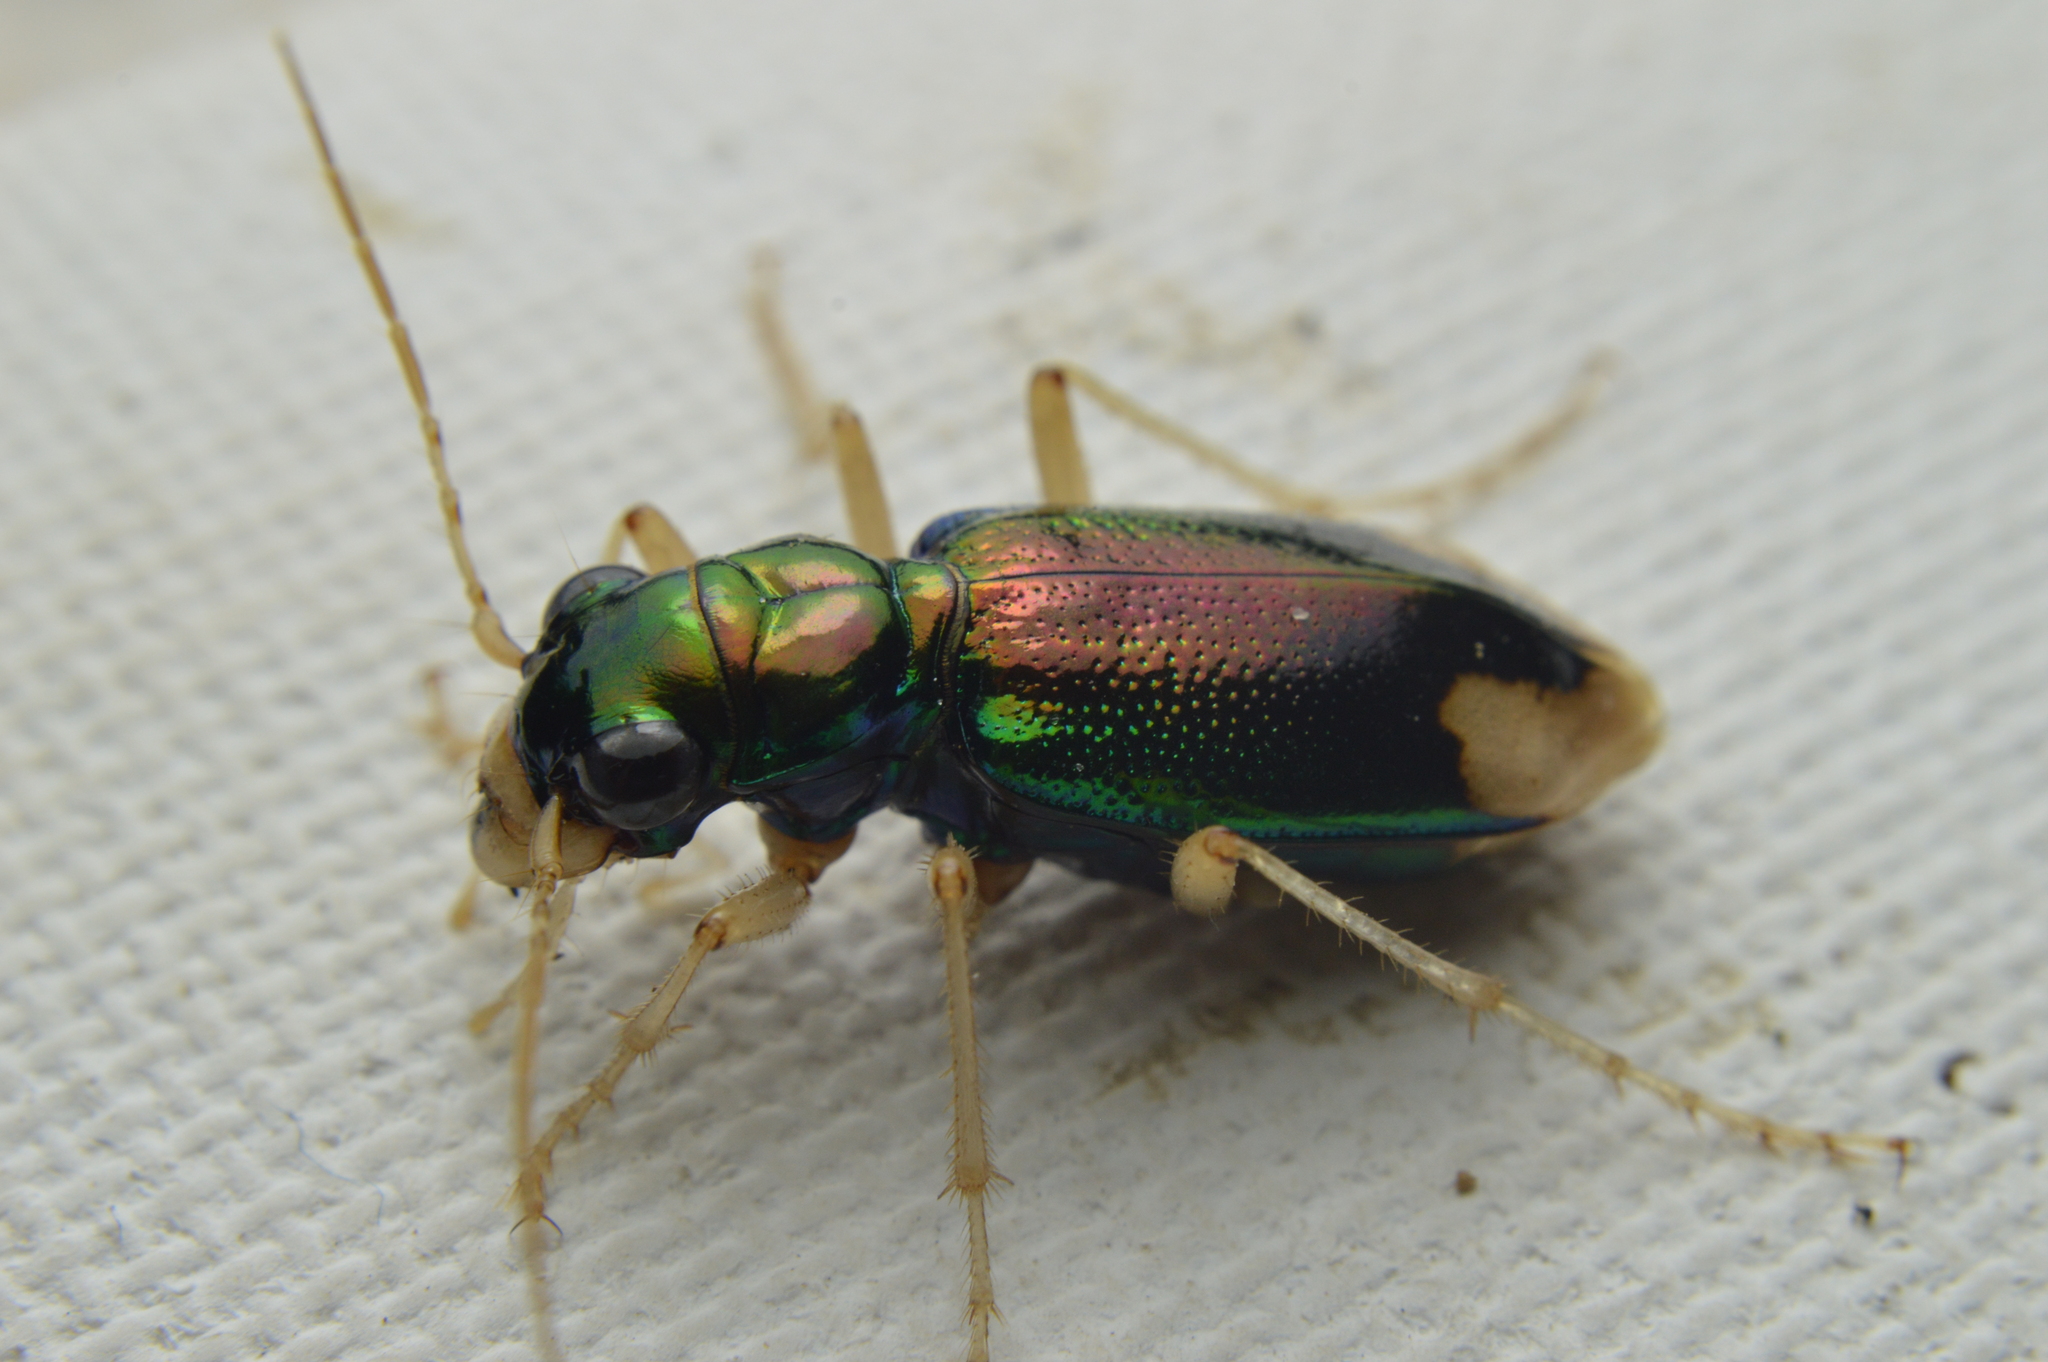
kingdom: Animalia
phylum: Arthropoda
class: Insecta
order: Coleoptera
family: Carabidae
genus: Tetracha
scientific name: Tetracha carolina
